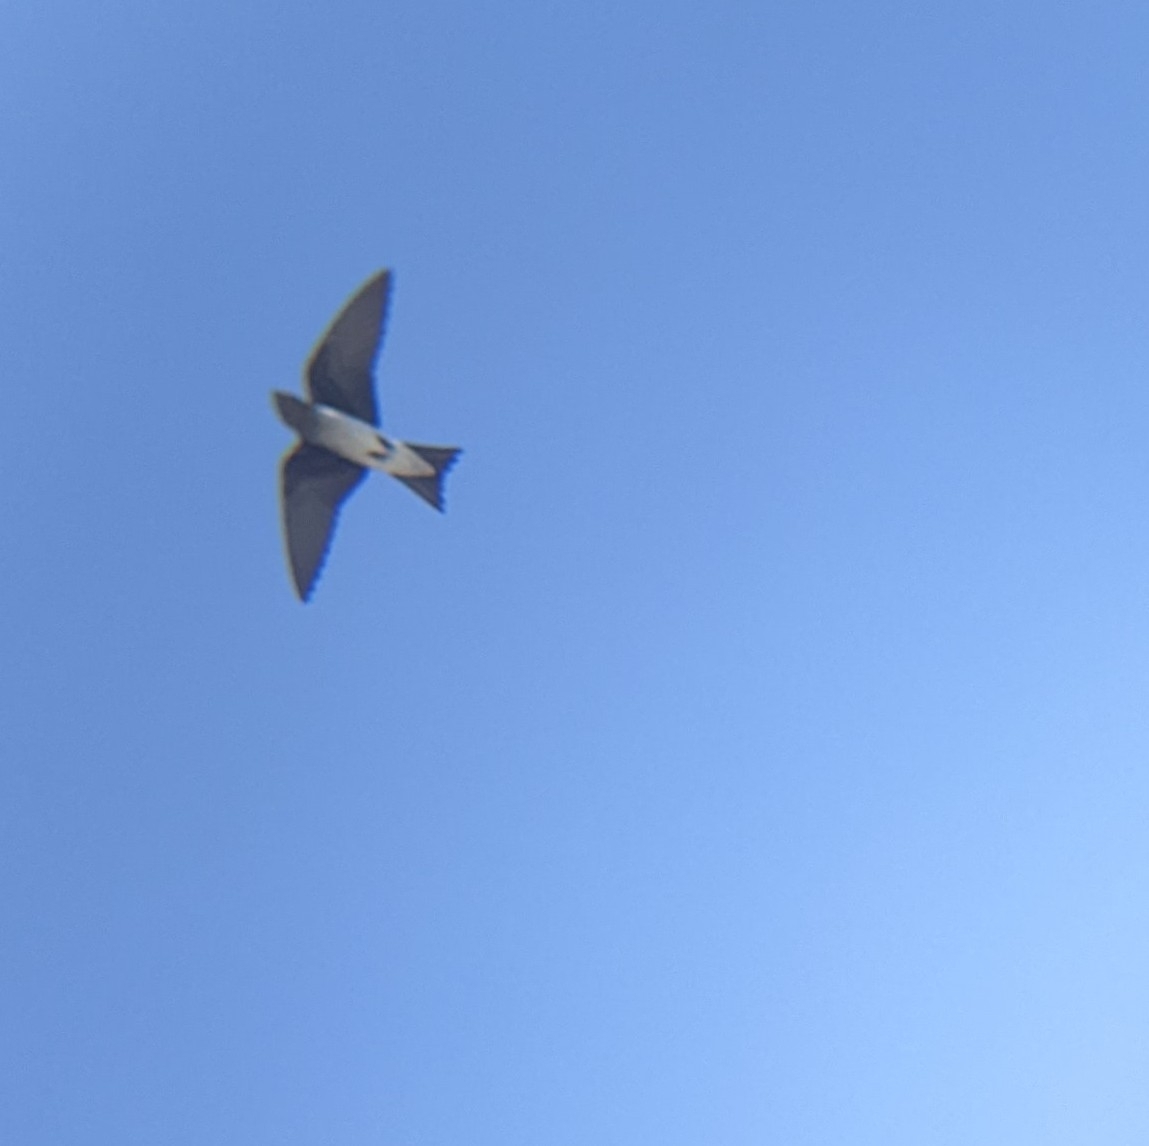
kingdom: Animalia
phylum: Chordata
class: Aves
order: Passeriformes
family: Hirundinidae
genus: Progne
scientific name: Progne chalybea
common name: Grey-breasted martin
